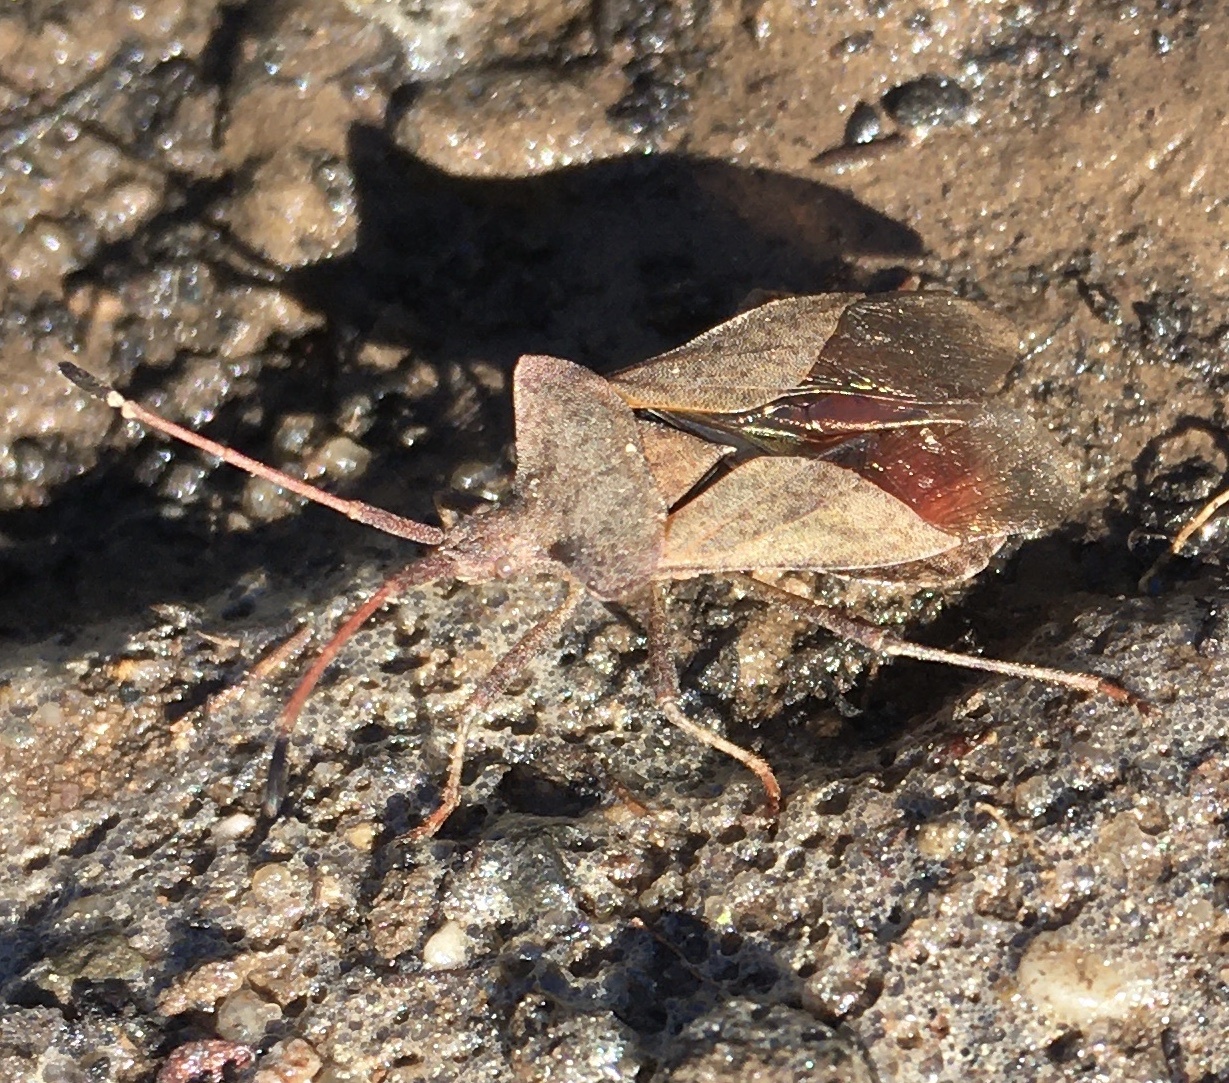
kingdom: Animalia
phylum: Arthropoda
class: Insecta
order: Hemiptera
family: Coreidae
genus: Coreus
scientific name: Coreus marginatus
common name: Dock bug
